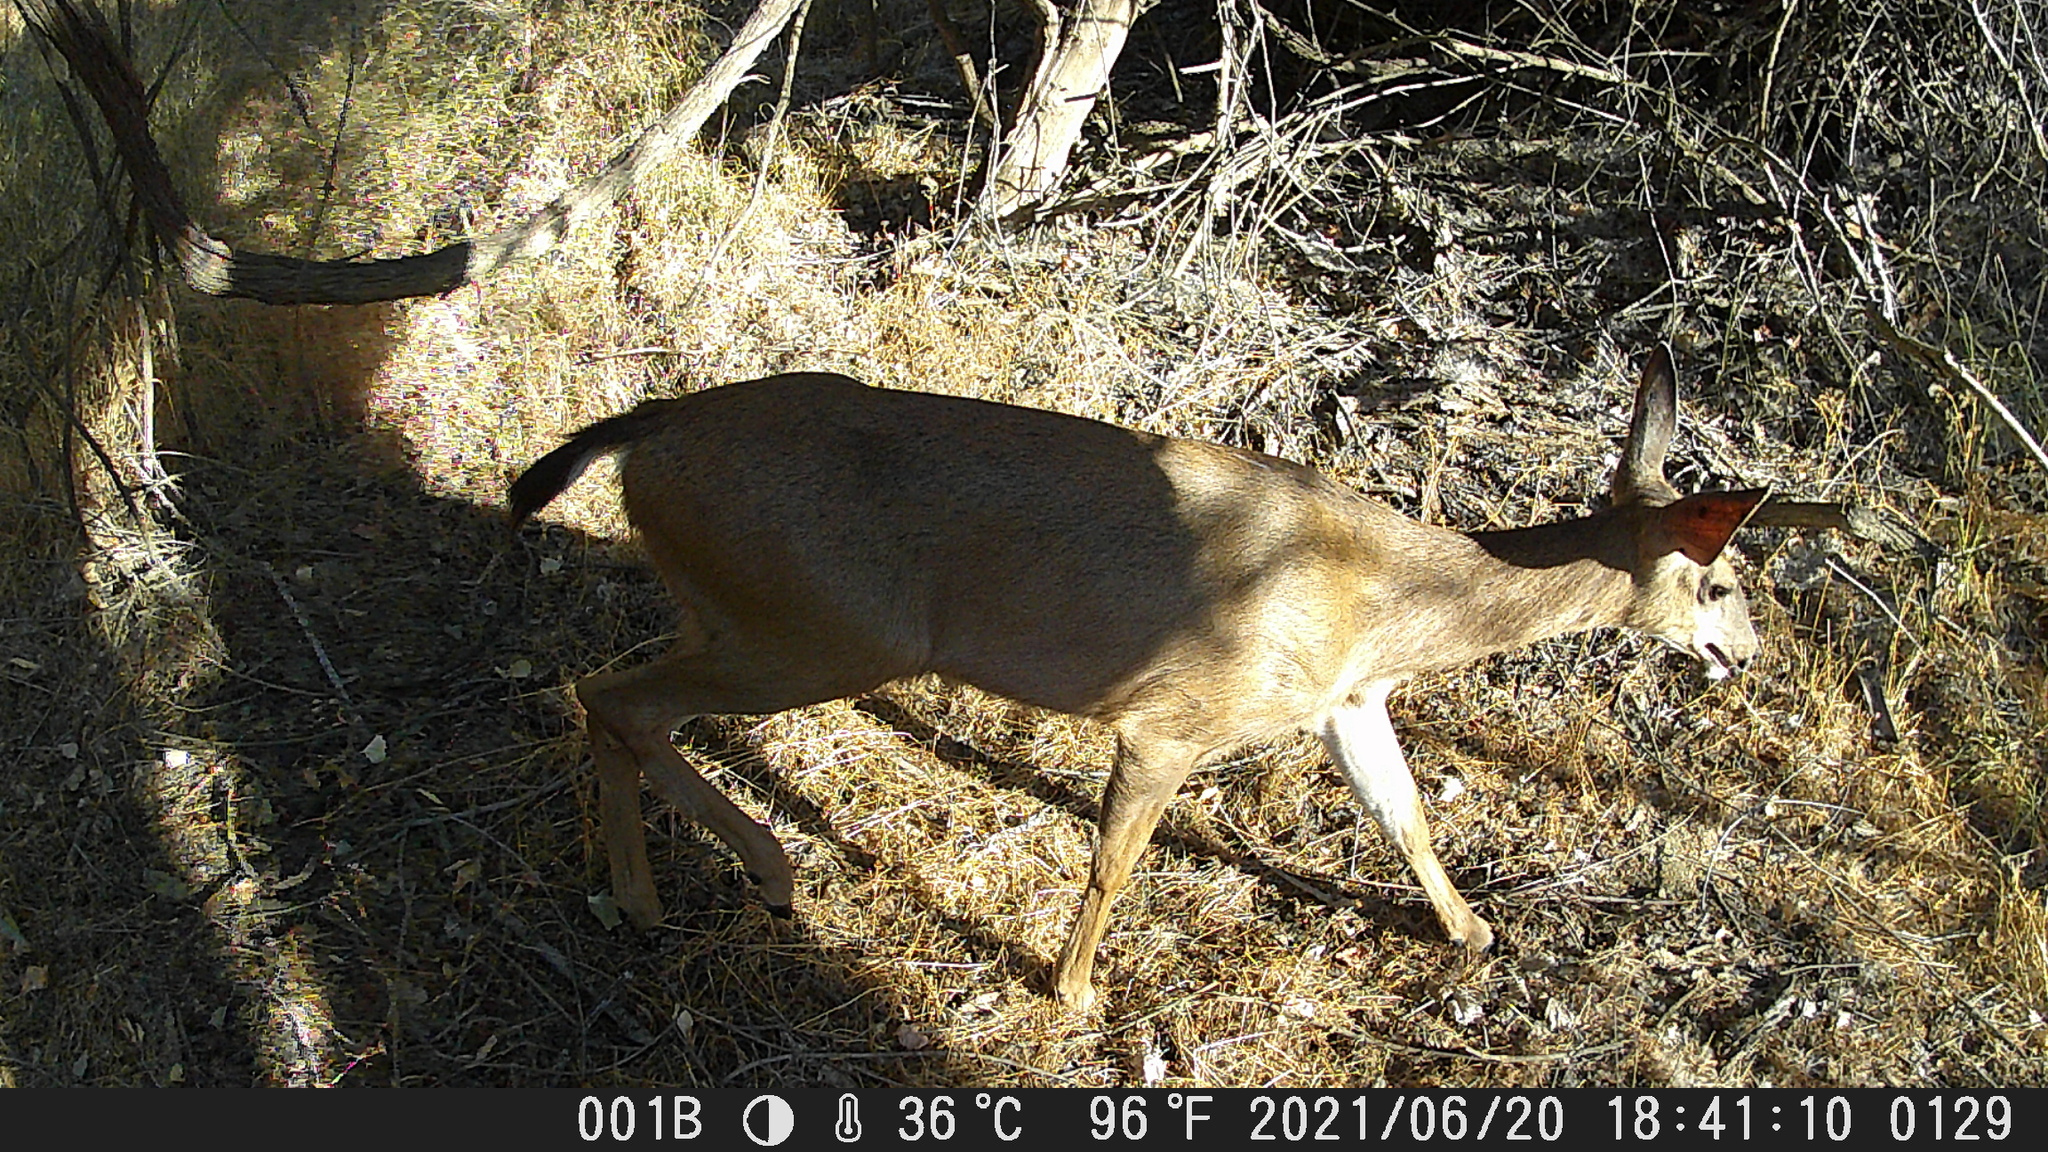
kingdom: Animalia
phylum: Chordata
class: Mammalia
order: Artiodactyla
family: Cervidae
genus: Odocoileus
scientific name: Odocoileus hemionus
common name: Mule deer
